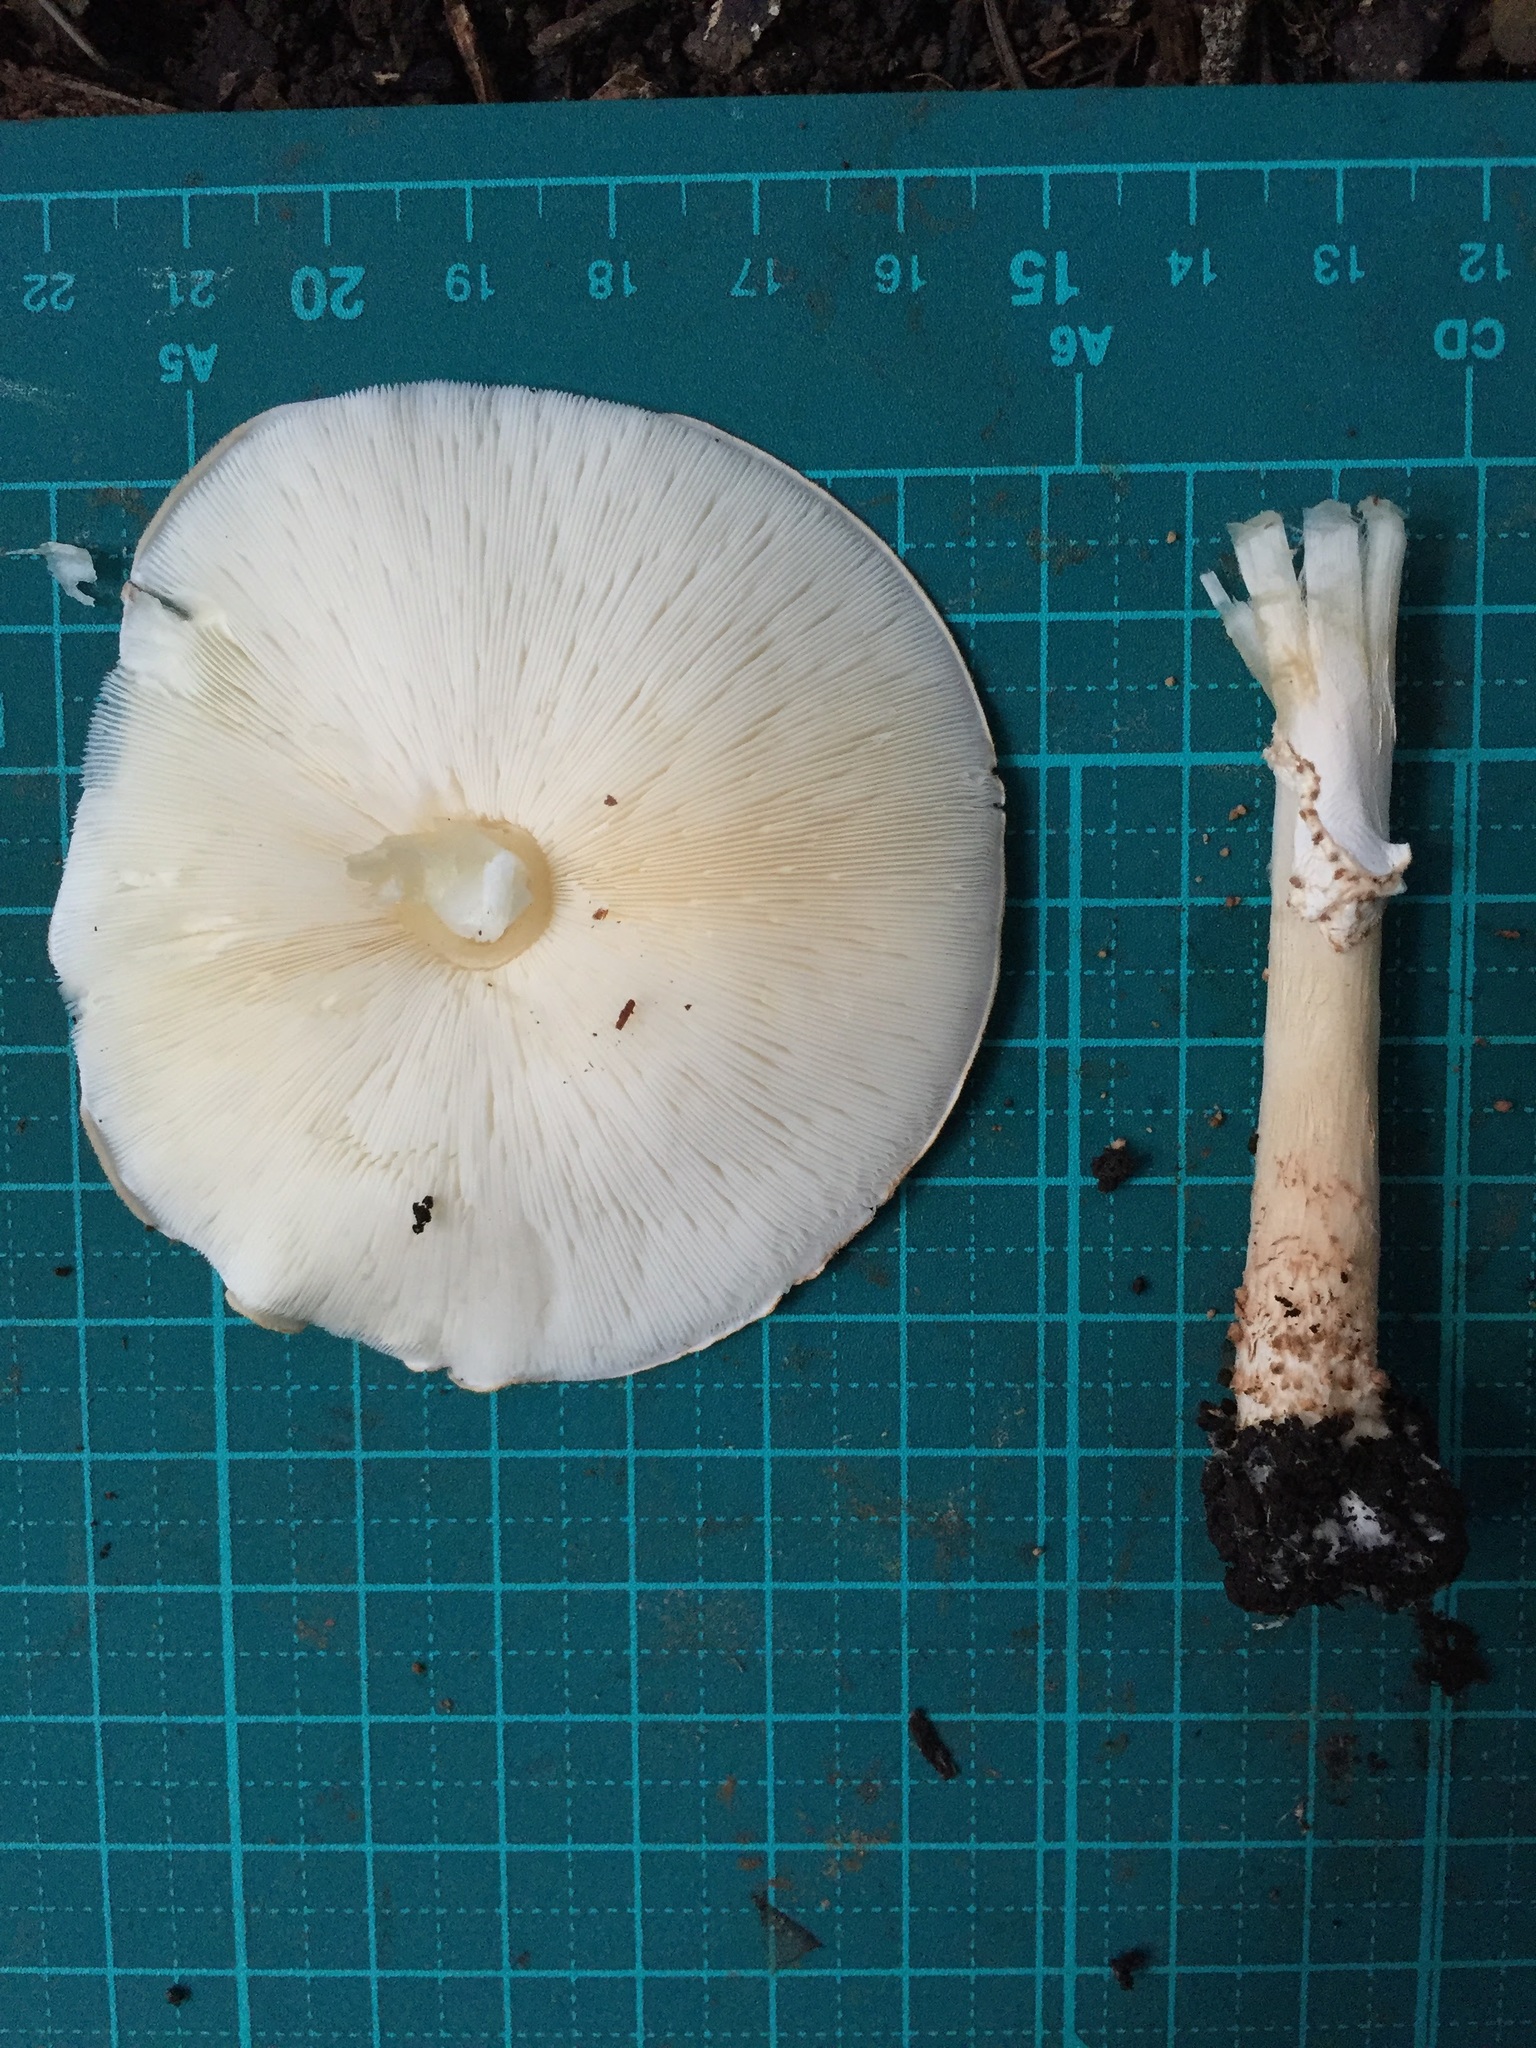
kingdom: Fungi
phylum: Basidiomycota
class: Agaricomycetes
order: Agaricales
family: Agaricaceae
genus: Echinoderma
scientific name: Echinoderma asperum
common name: Freckled dapperling
